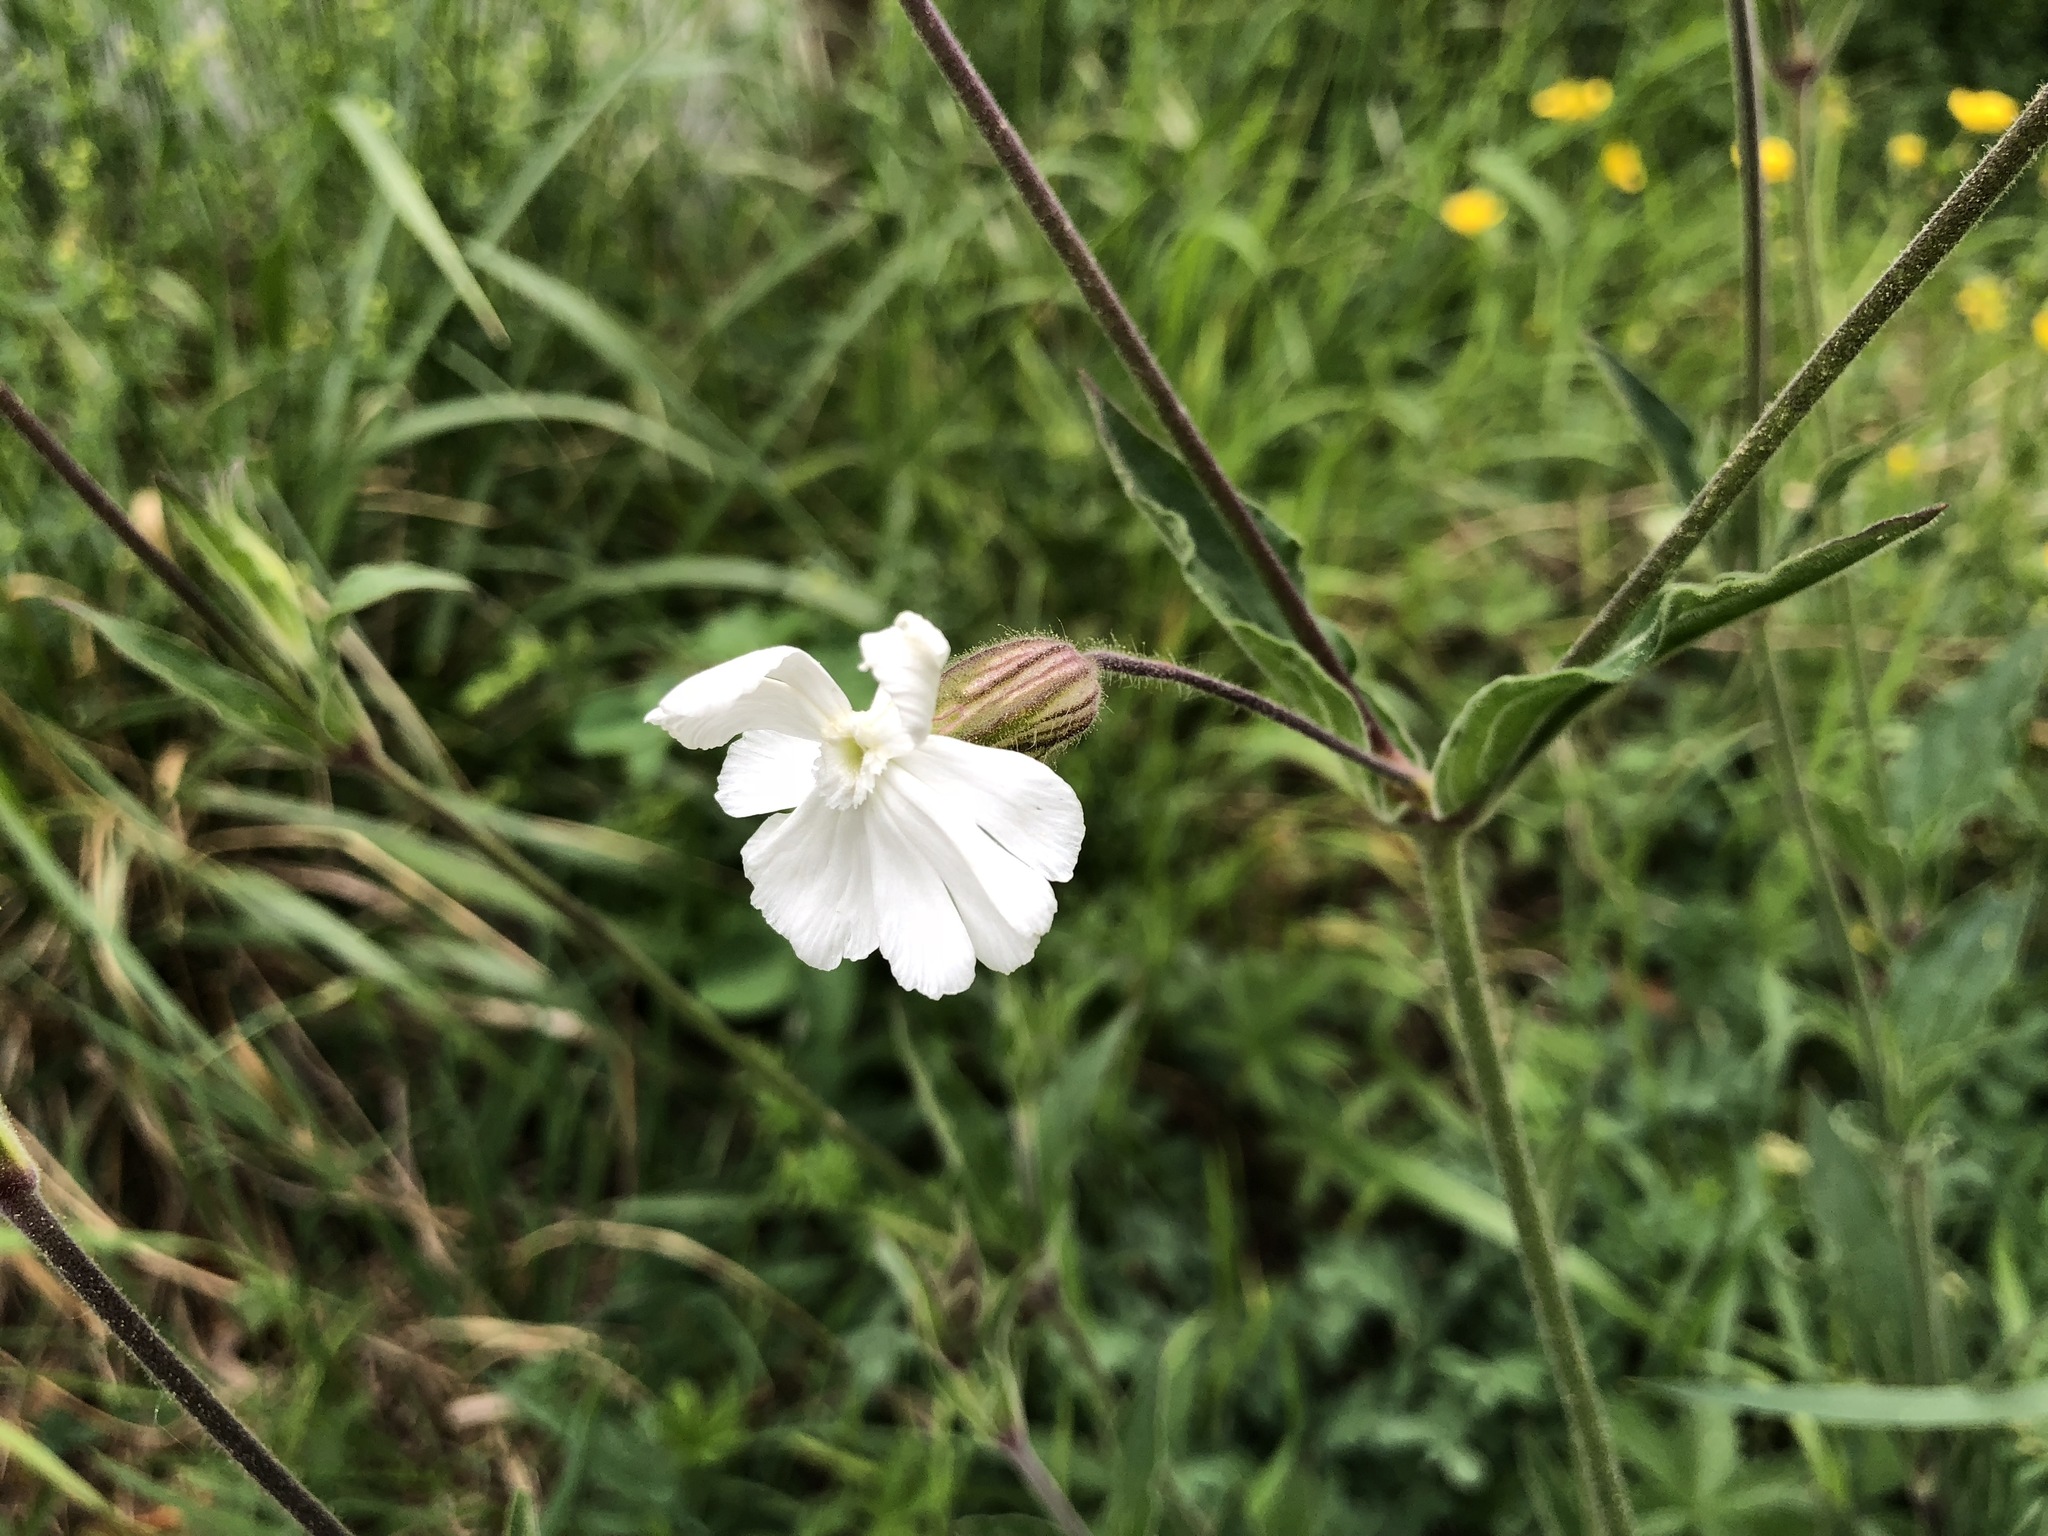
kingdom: Plantae
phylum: Tracheophyta
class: Magnoliopsida
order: Caryophyllales
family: Caryophyllaceae
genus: Silene
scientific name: Silene latifolia
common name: White campion
